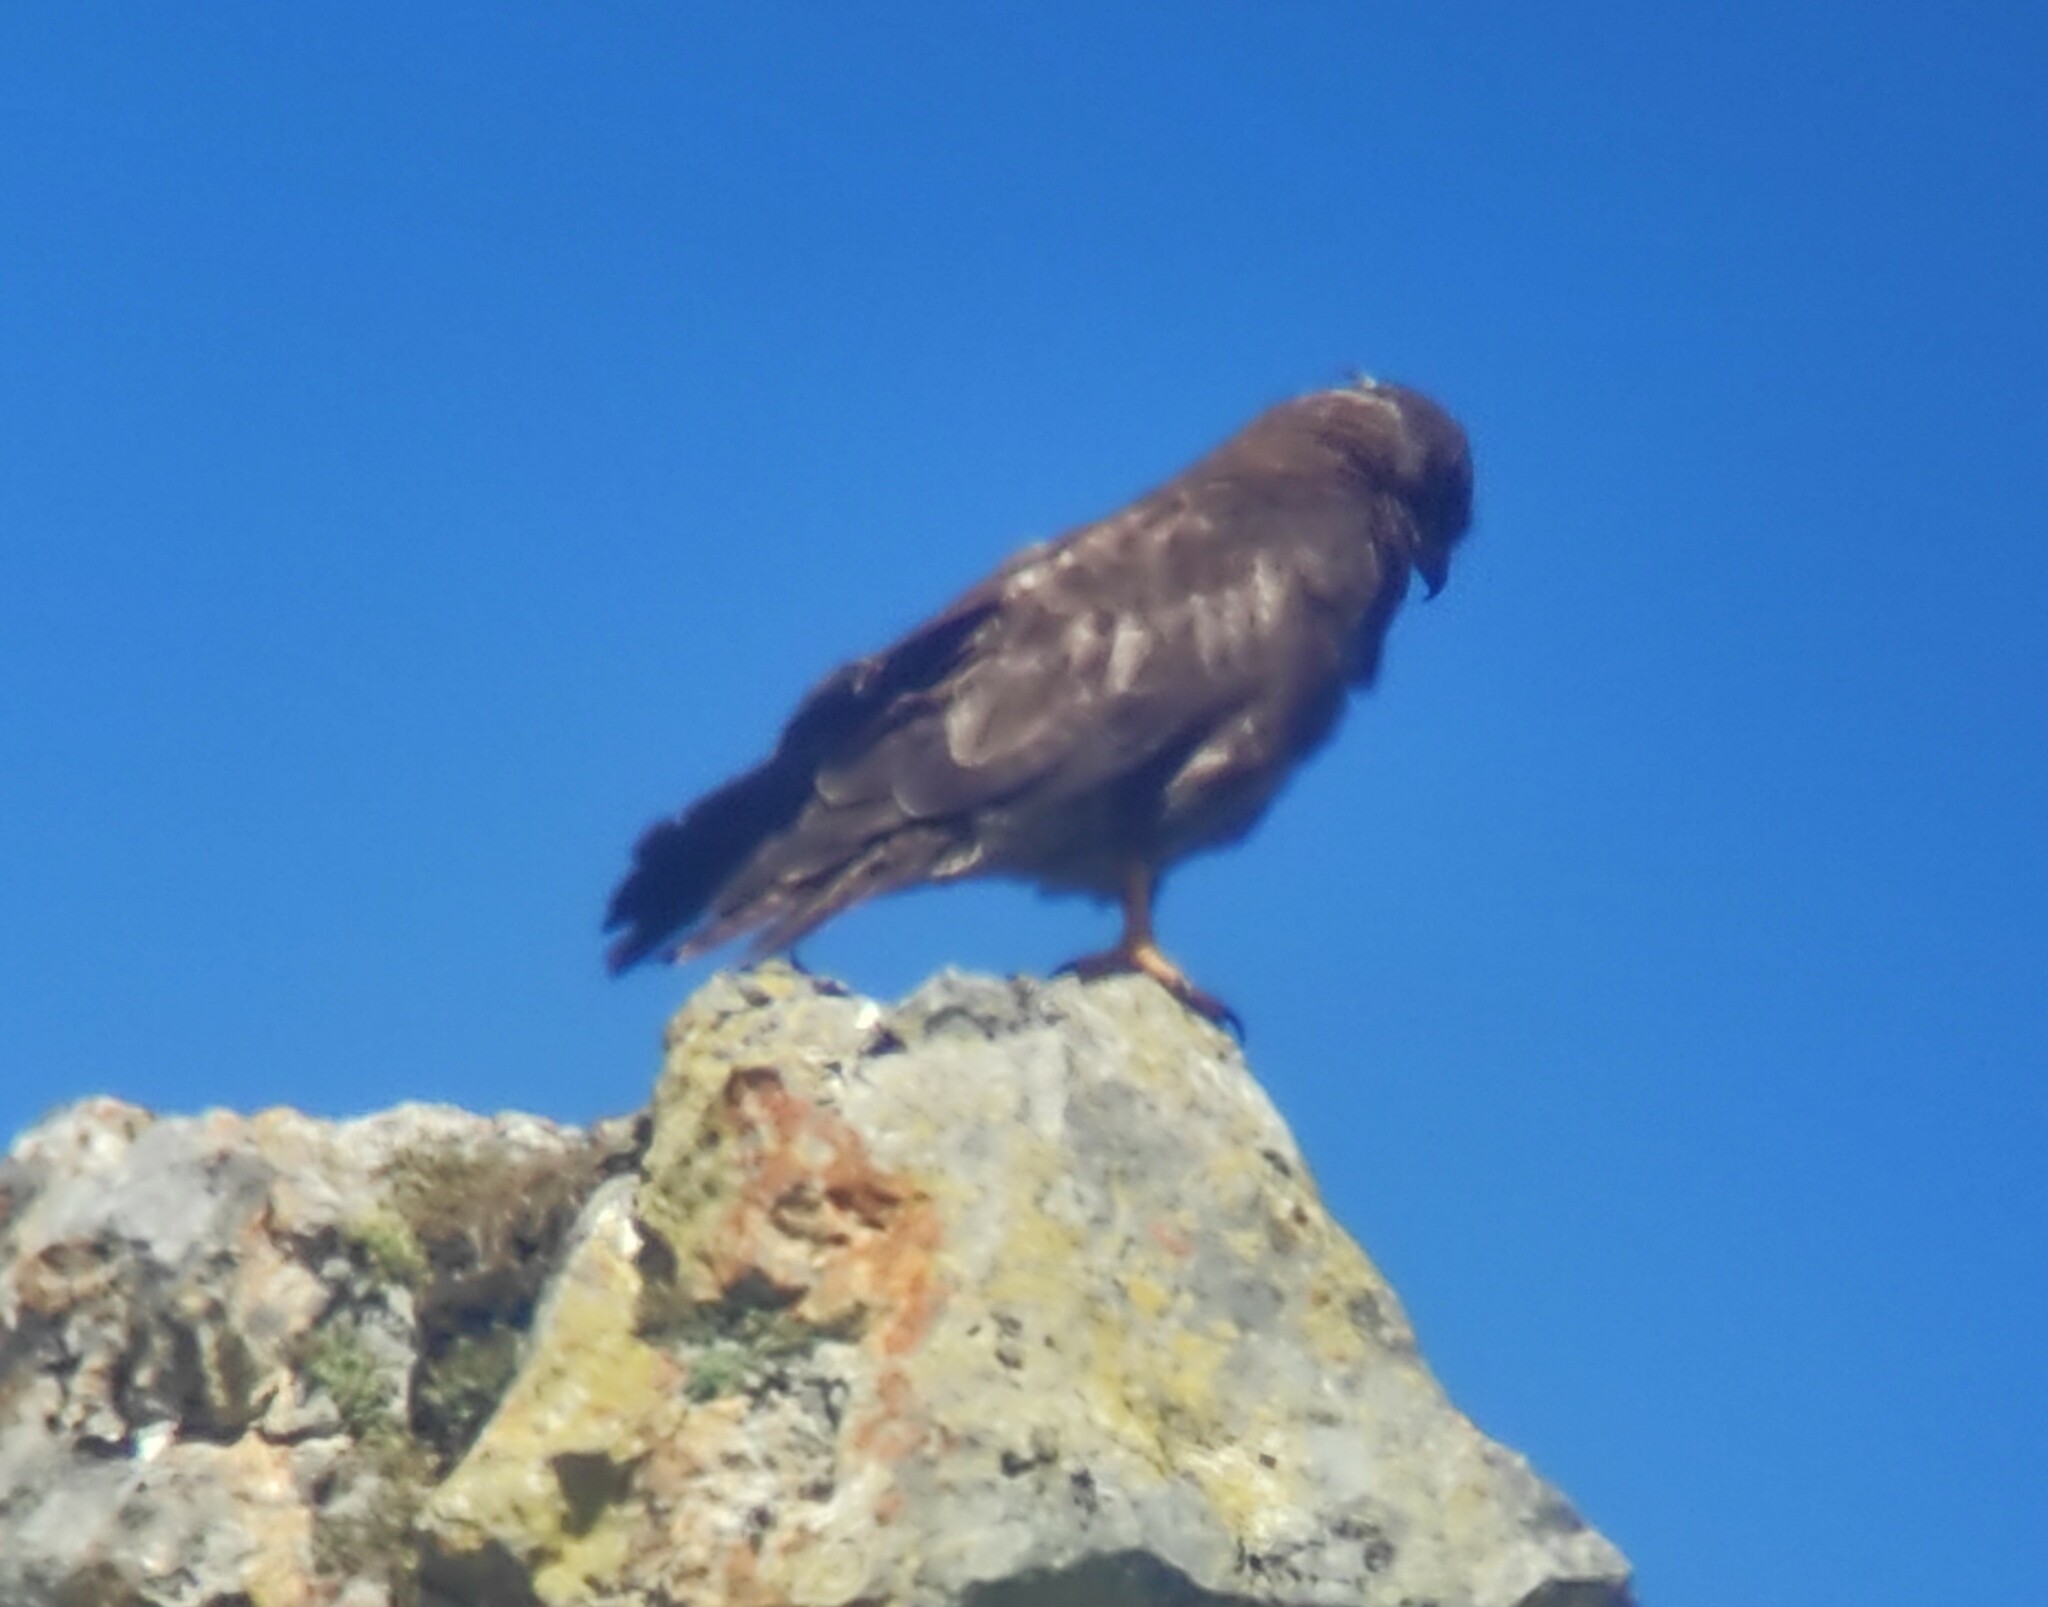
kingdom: Animalia
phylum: Chordata
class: Aves
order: Accipitriformes
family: Accipitridae
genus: Buteo
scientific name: Buteo buteo
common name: Common buzzard
